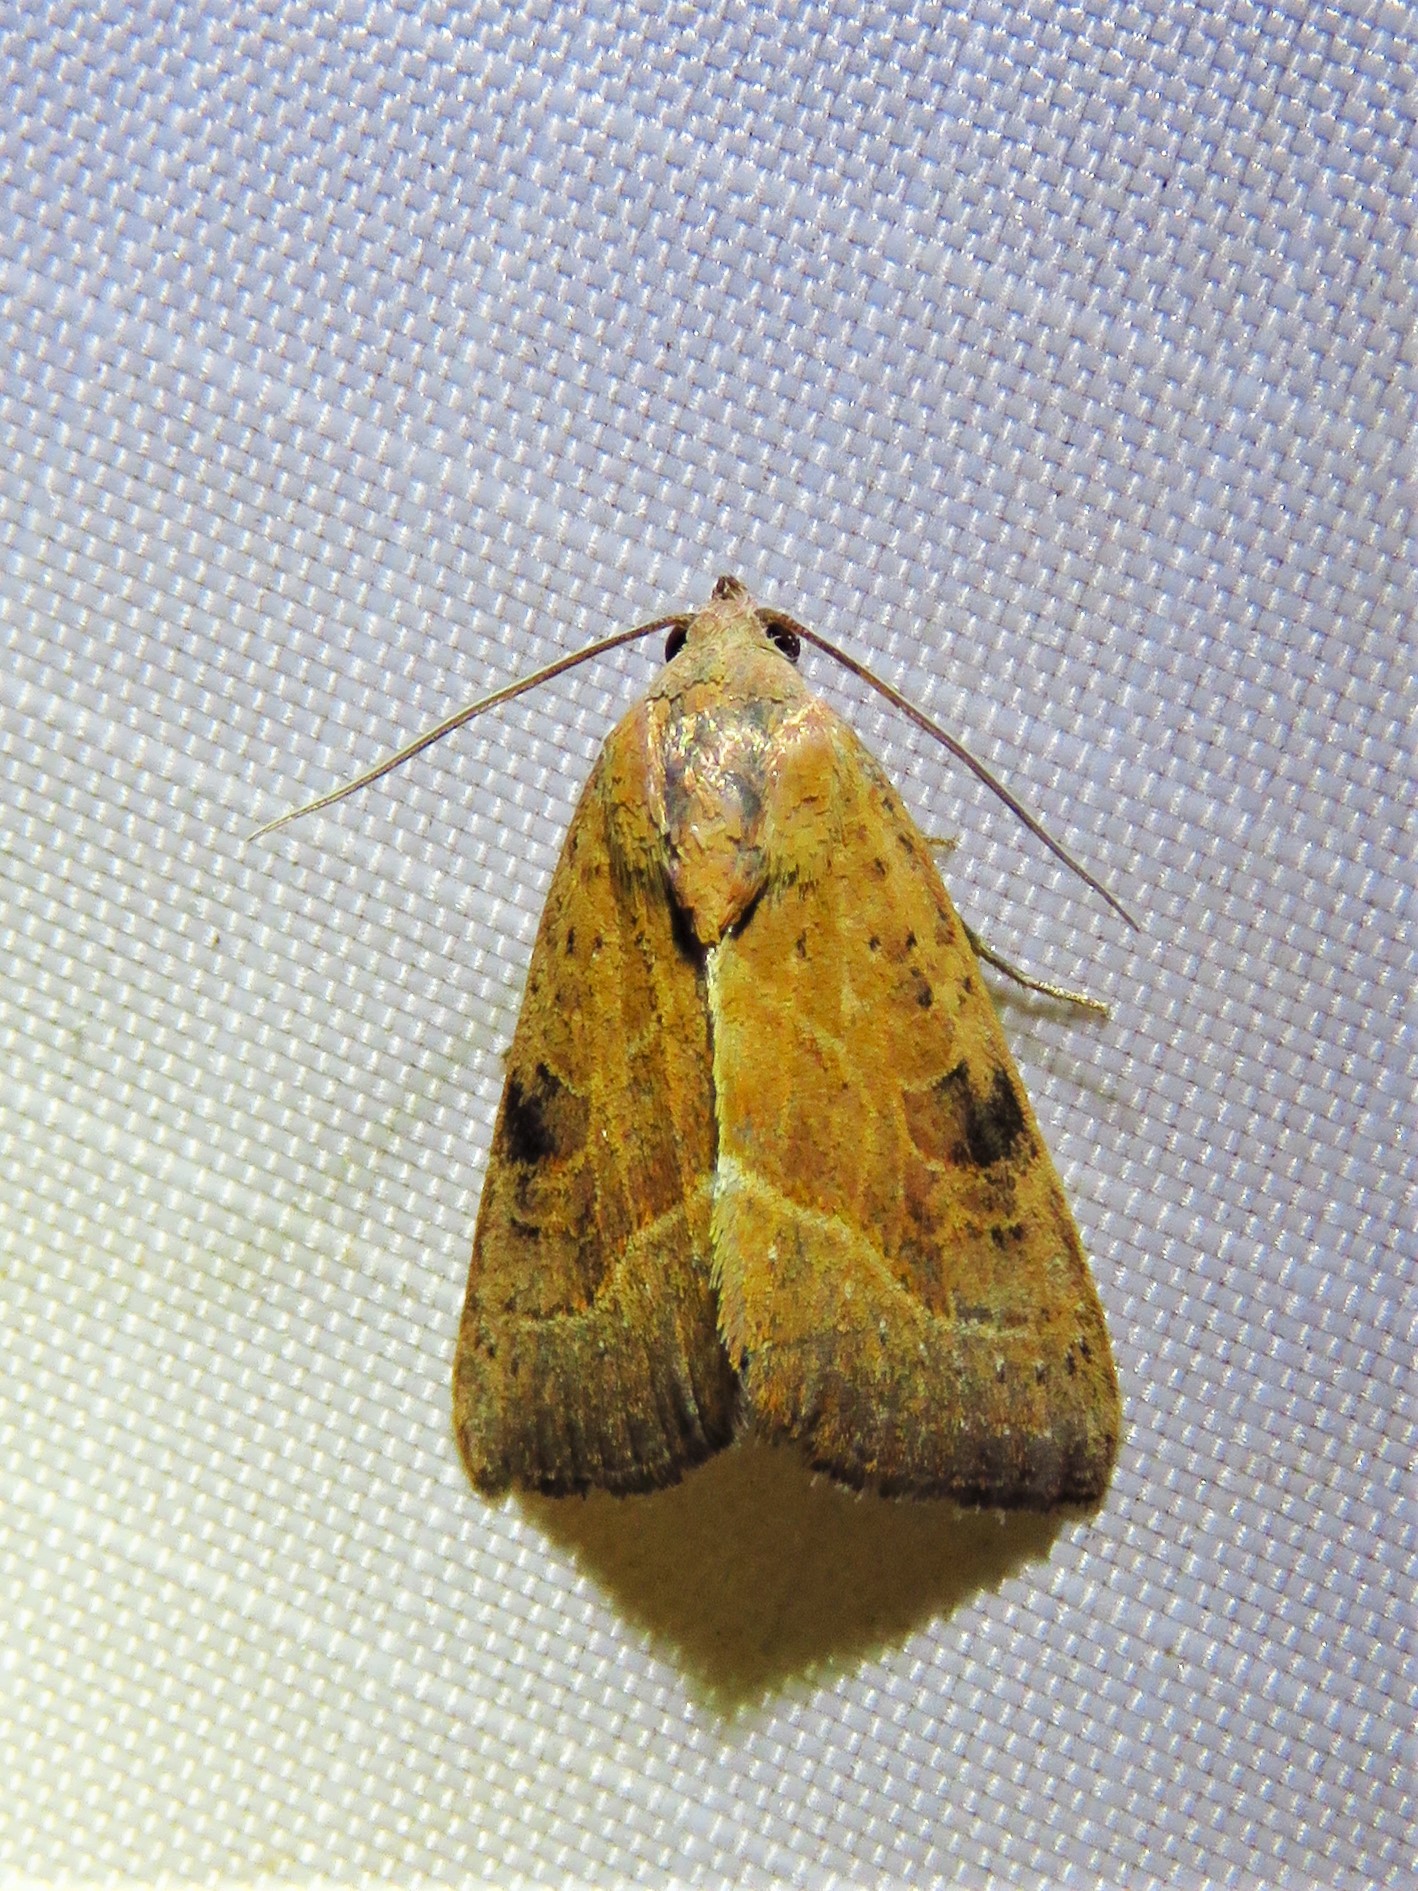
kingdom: Animalia
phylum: Arthropoda
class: Insecta
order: Lepidoptera
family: Noctuidae
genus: Galgula
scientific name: Galgula partita
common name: Wedgeling
